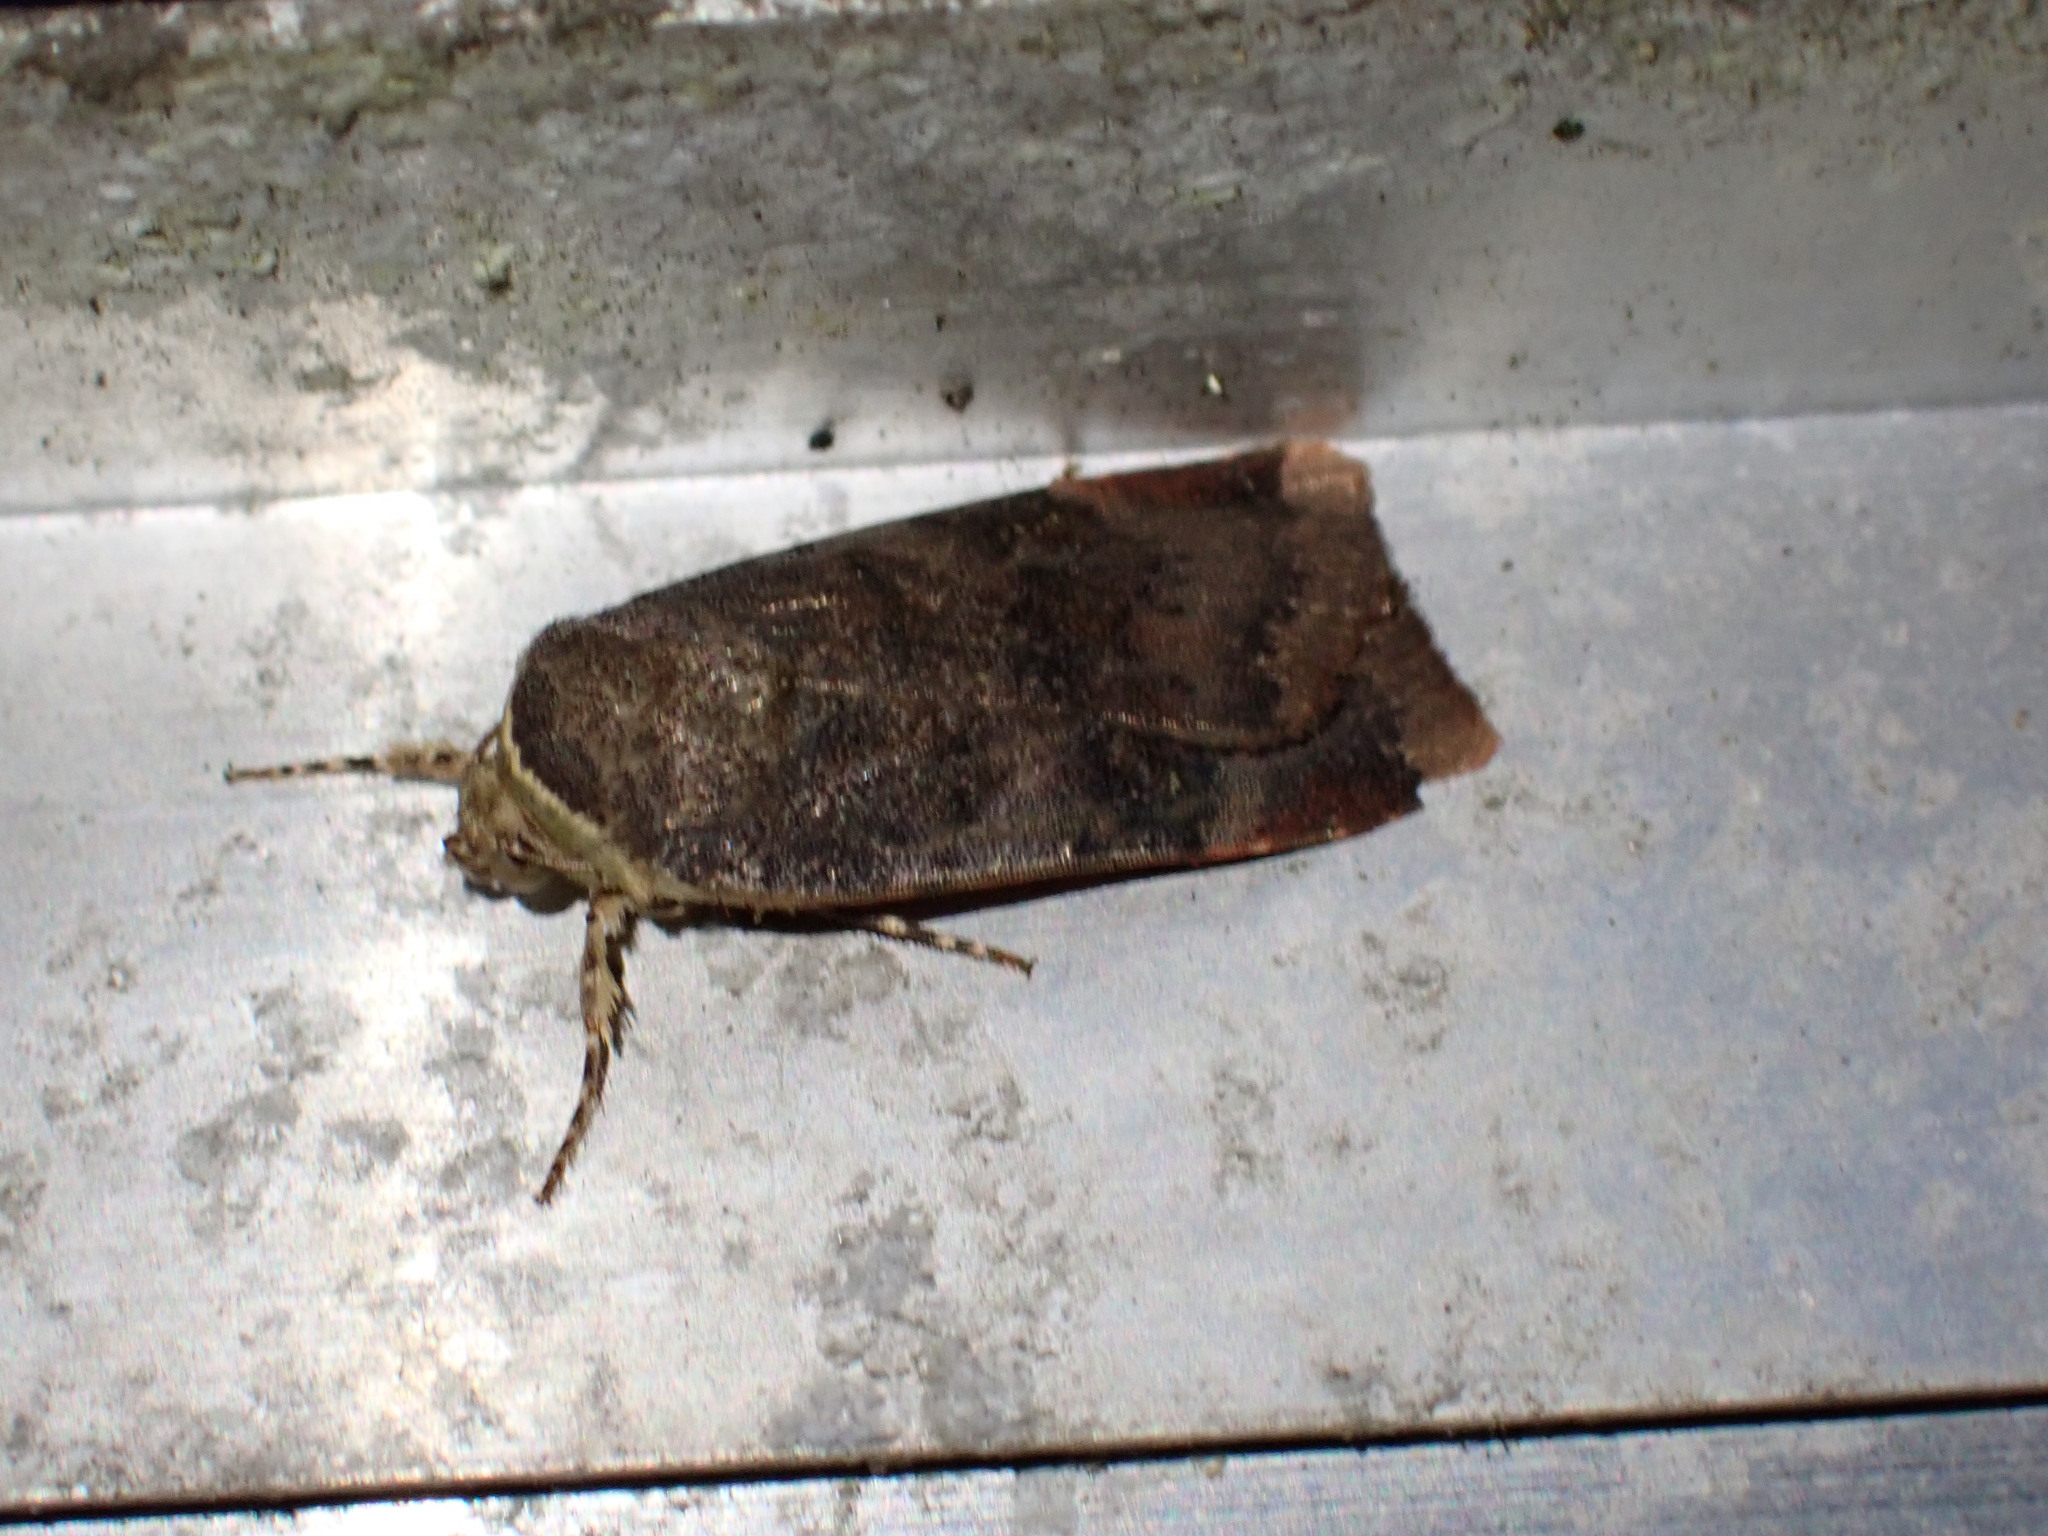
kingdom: Animalia
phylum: Arthropoda
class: Insecta
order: Lepidoptera
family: Noctuidae
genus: Noctua
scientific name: Noctua janthe
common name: Lesser broad-bordered yellow underwing
